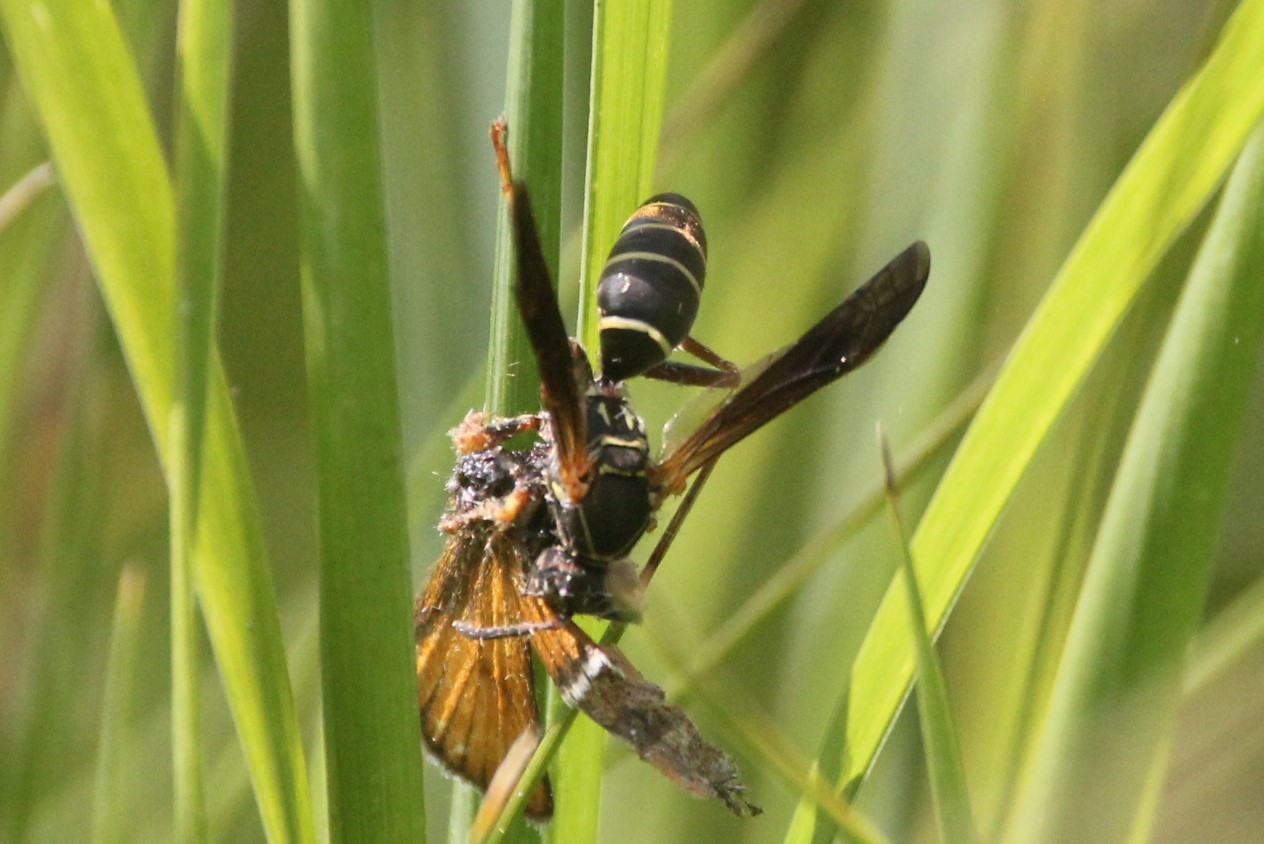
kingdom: Animalia
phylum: Arthropoda
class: Insecta
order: Hymenoptera
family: Eumenidae
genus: Polistes
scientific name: Polistes fuscatus
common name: Dark paper wasp
